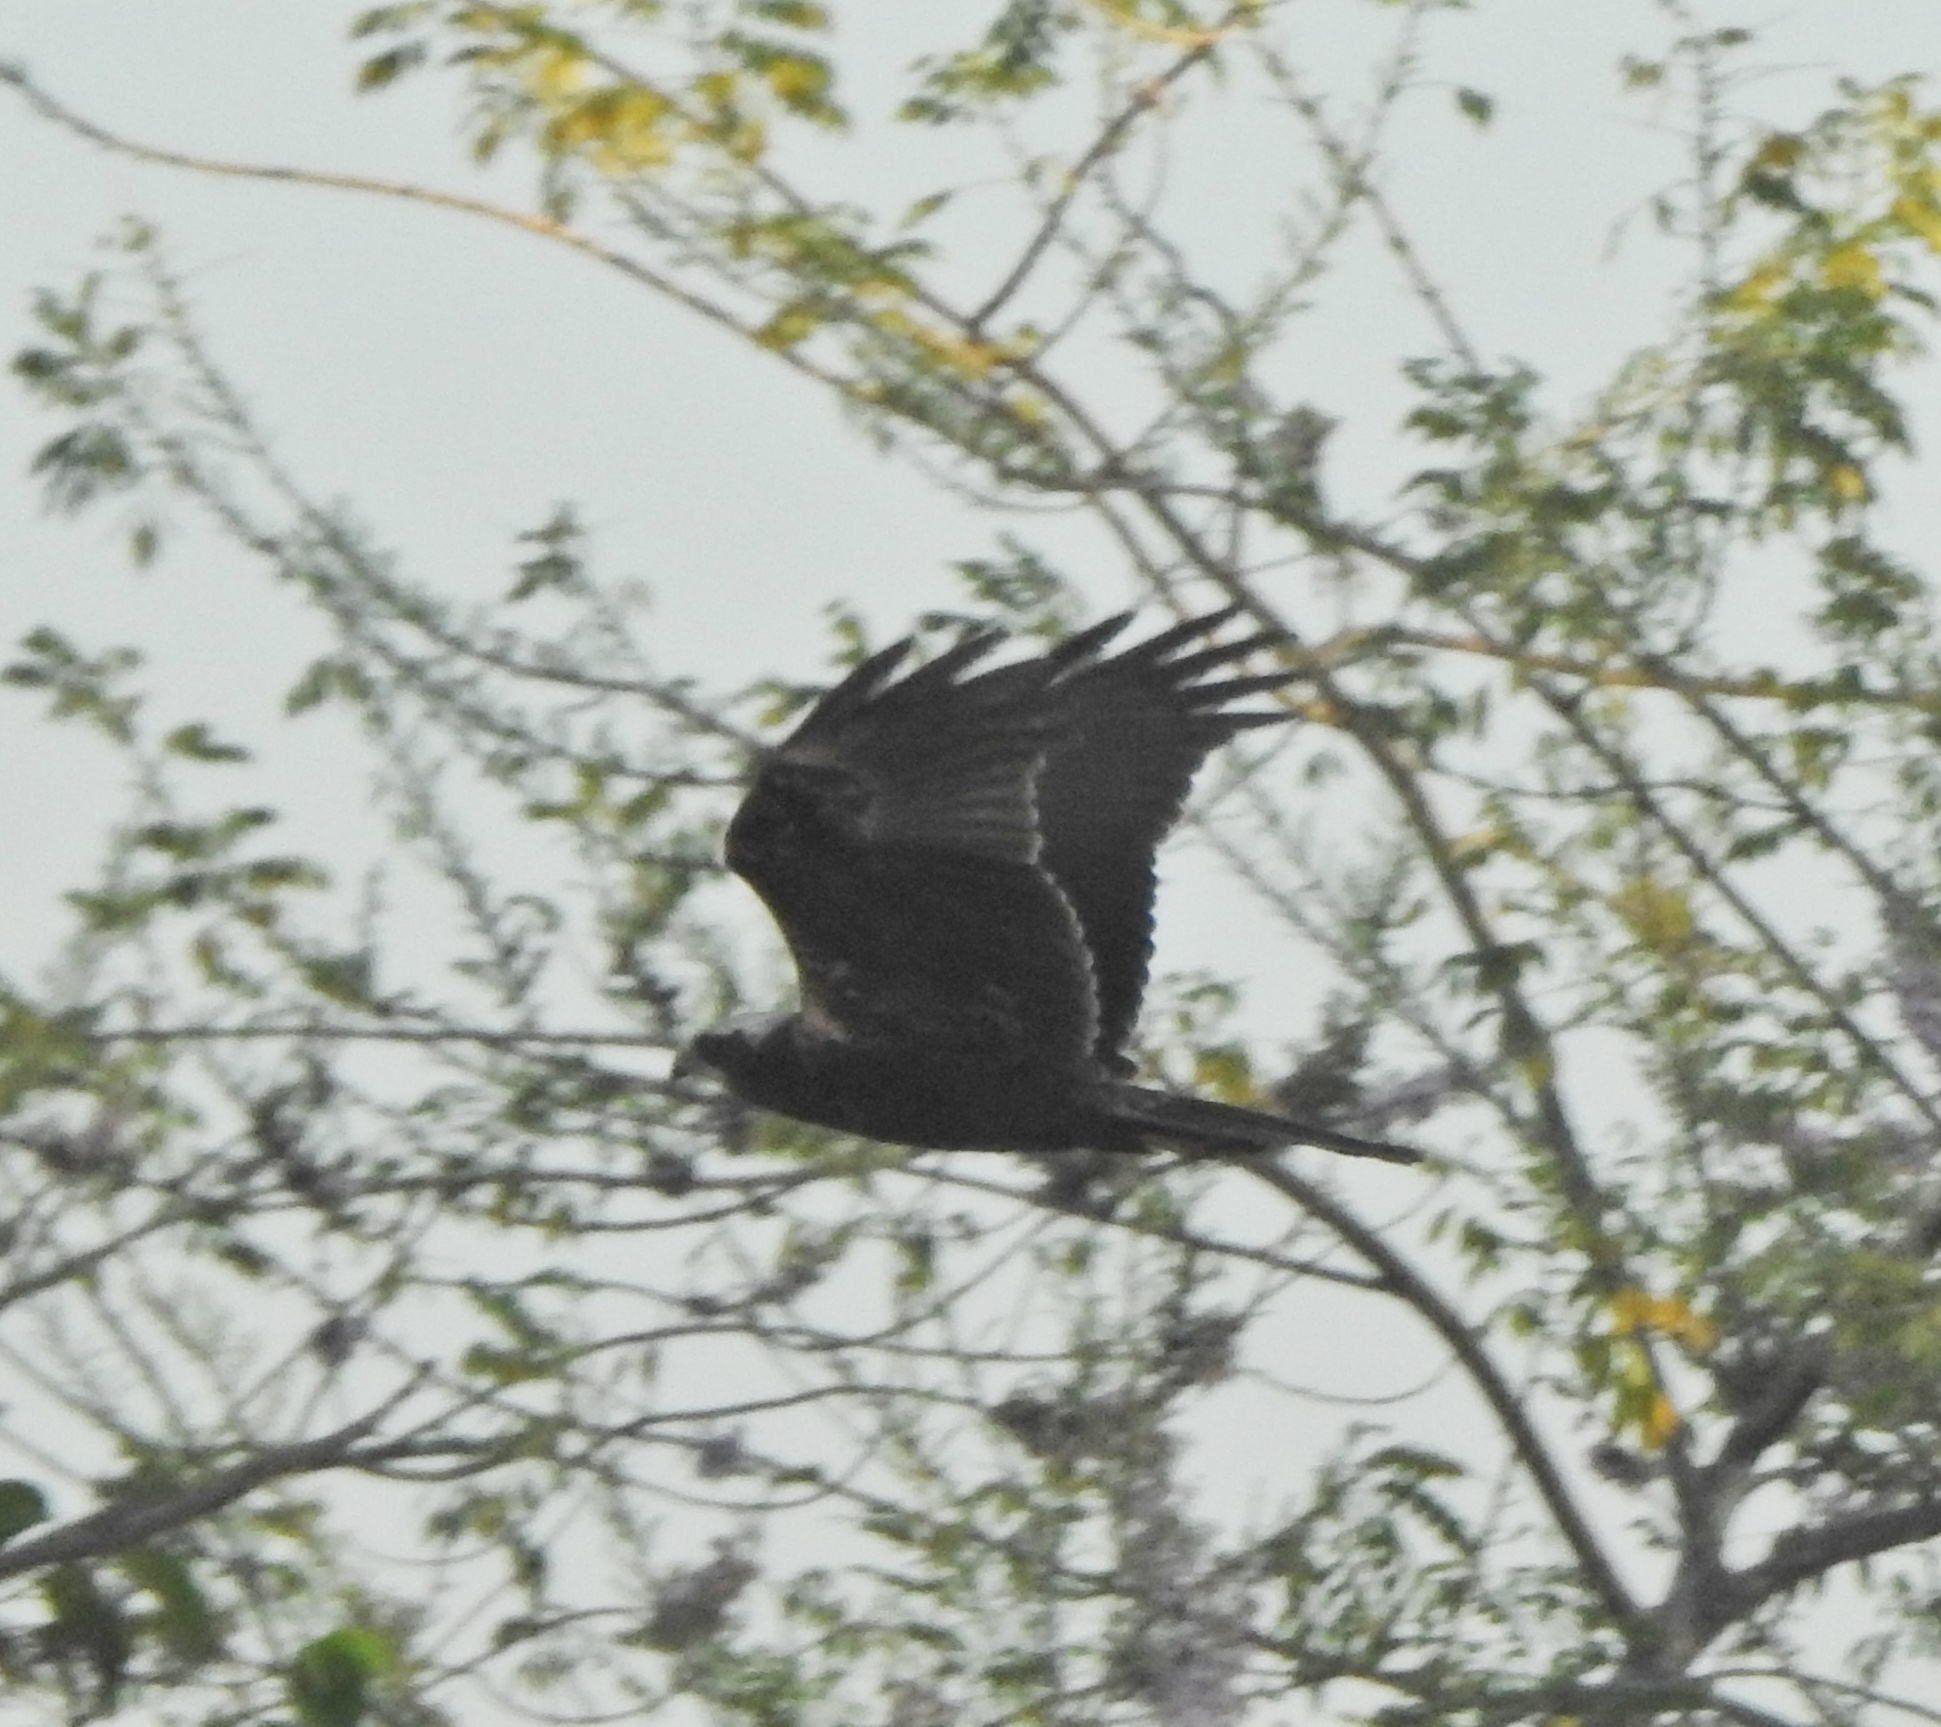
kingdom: Animalia
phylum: Chordata
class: Aves
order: Accipitriformes
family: Accipitridae
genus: Circus
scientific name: Circus aeruginosus
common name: Western marsh harrier
